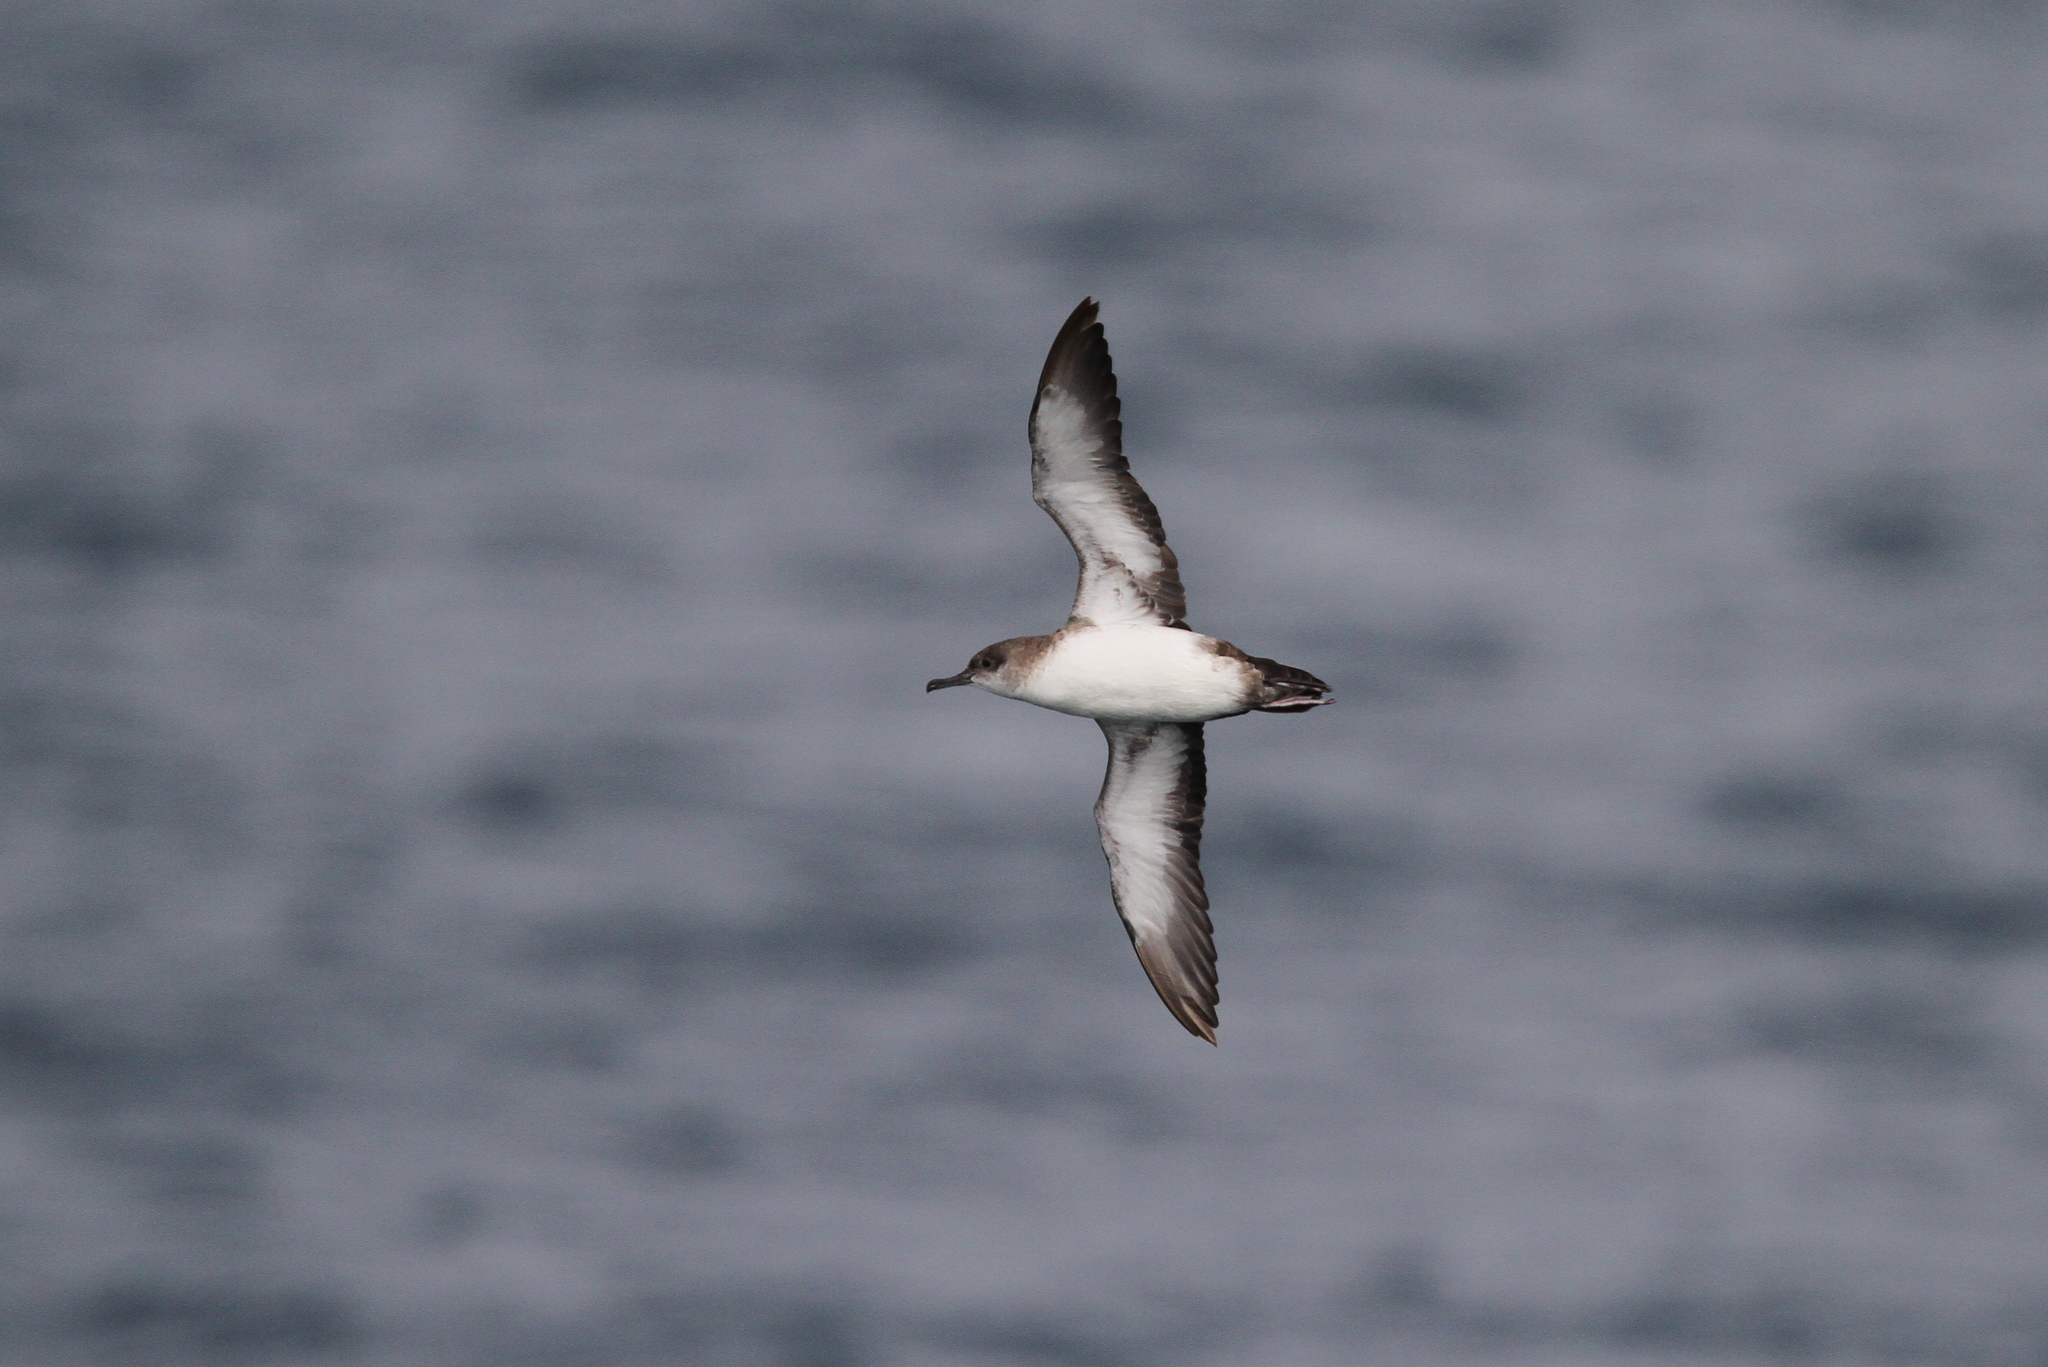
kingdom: Animalia
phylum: Chordata
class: Aves
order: Procellariiformes
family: Procellariidae
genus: Puffinus
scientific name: Puffinus opisthomelas
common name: Black-vented shearwater
